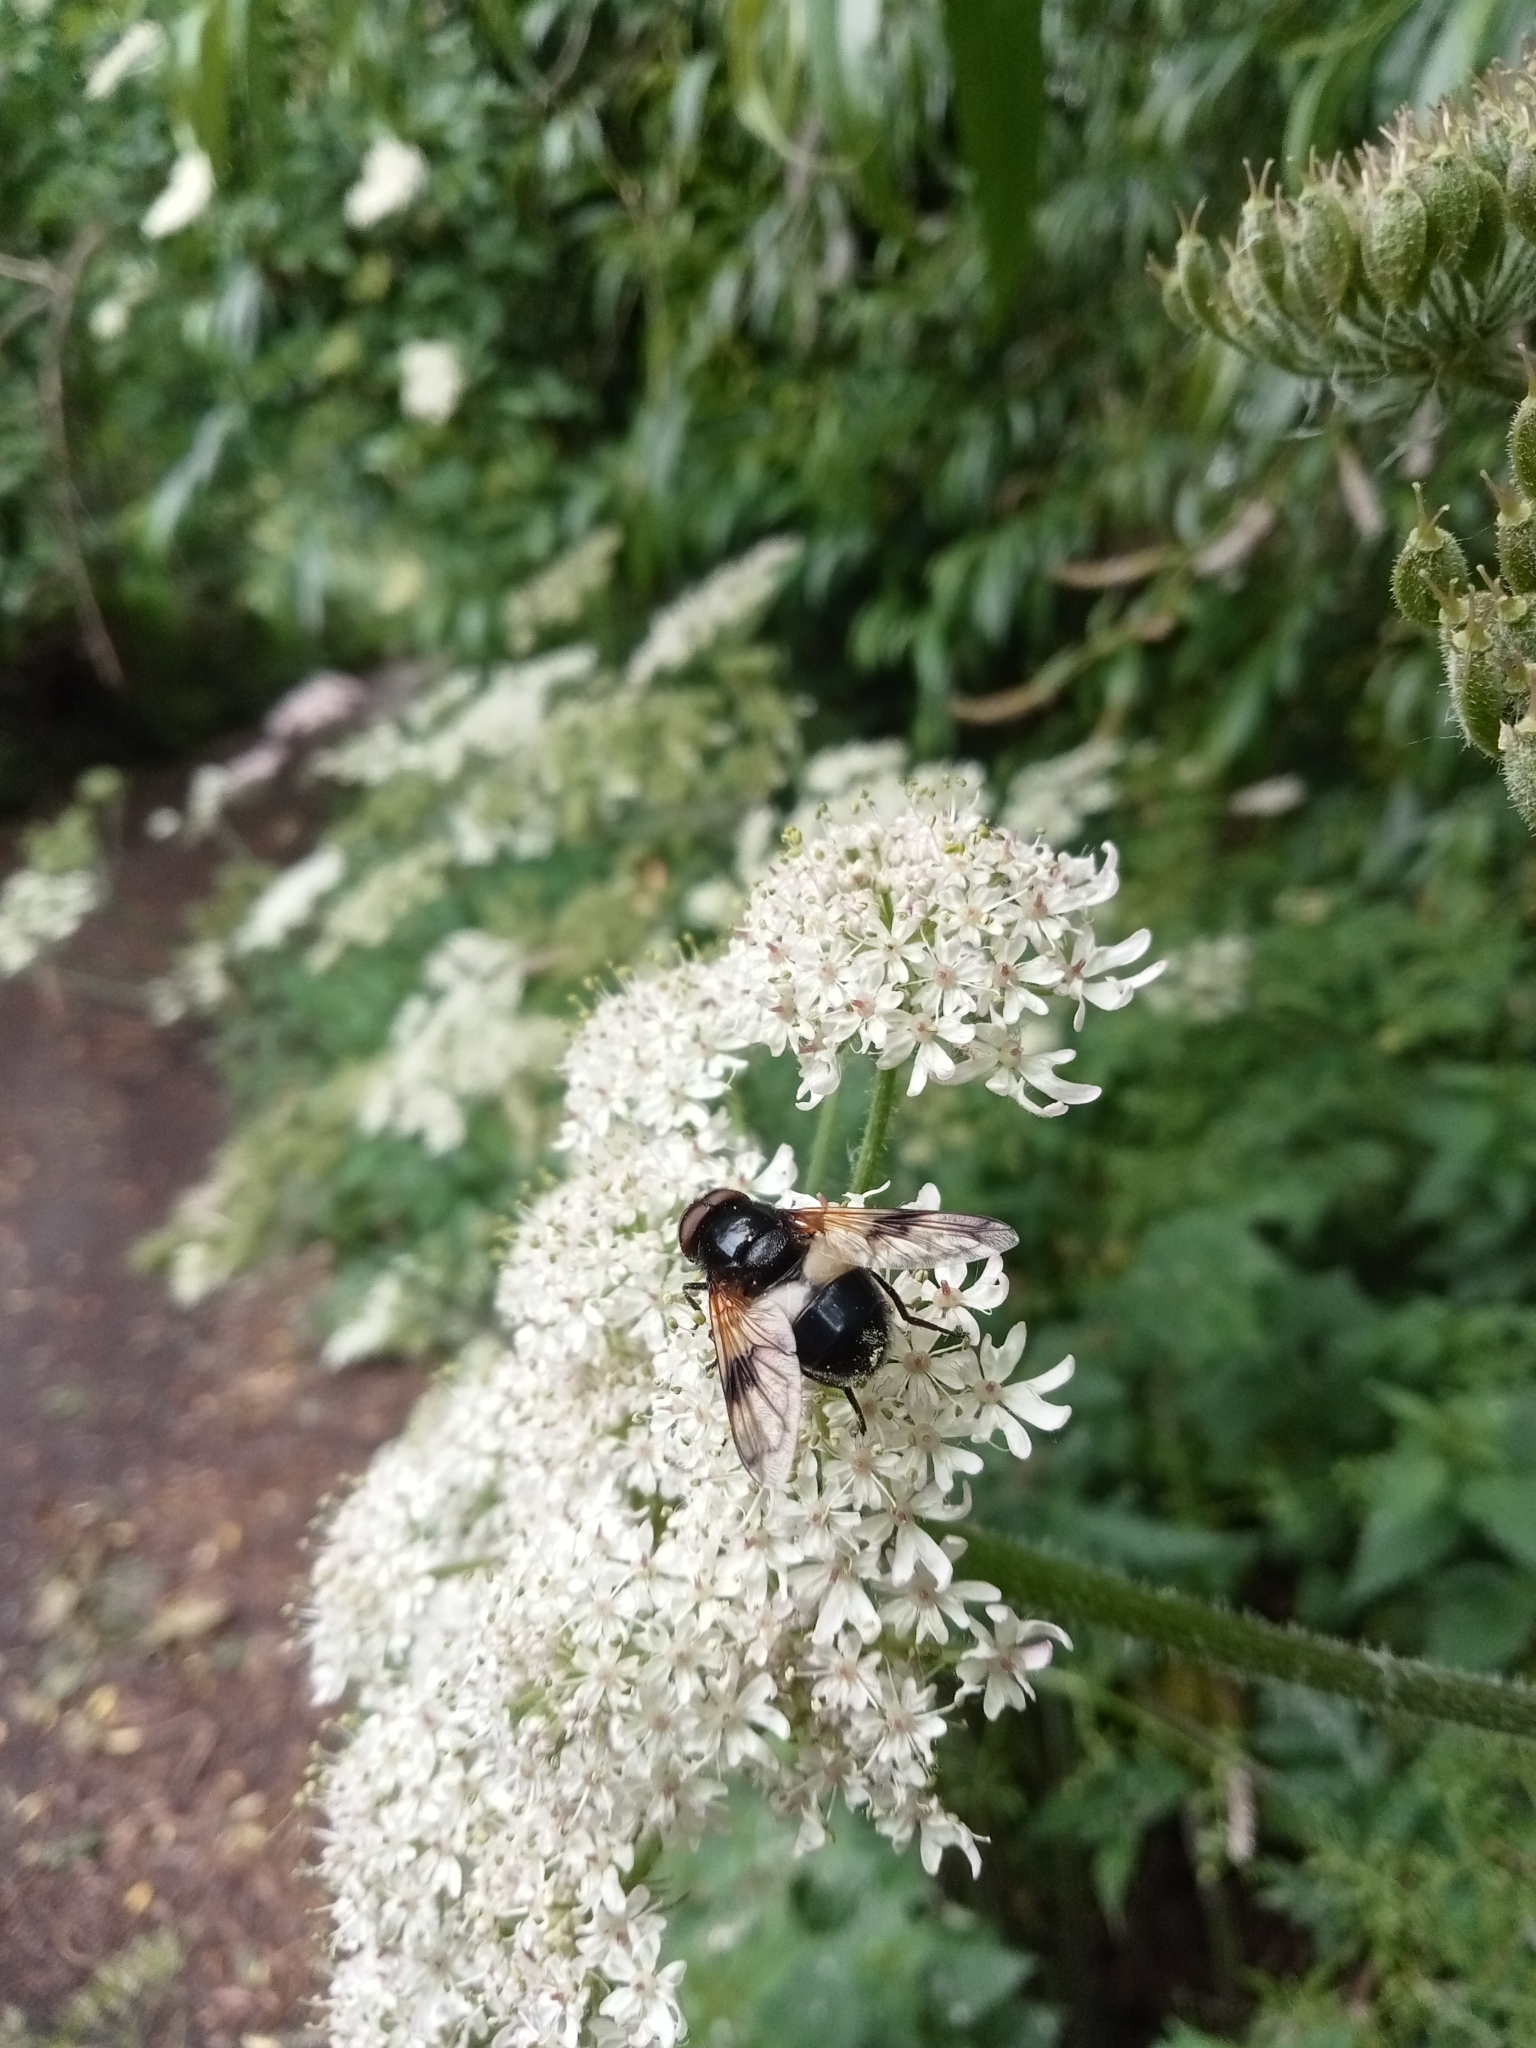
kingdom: Animalia
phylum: Arthropoda
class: Insecta
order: Diptera
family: Syrphidae
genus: Volucella
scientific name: Volucella pellucens
